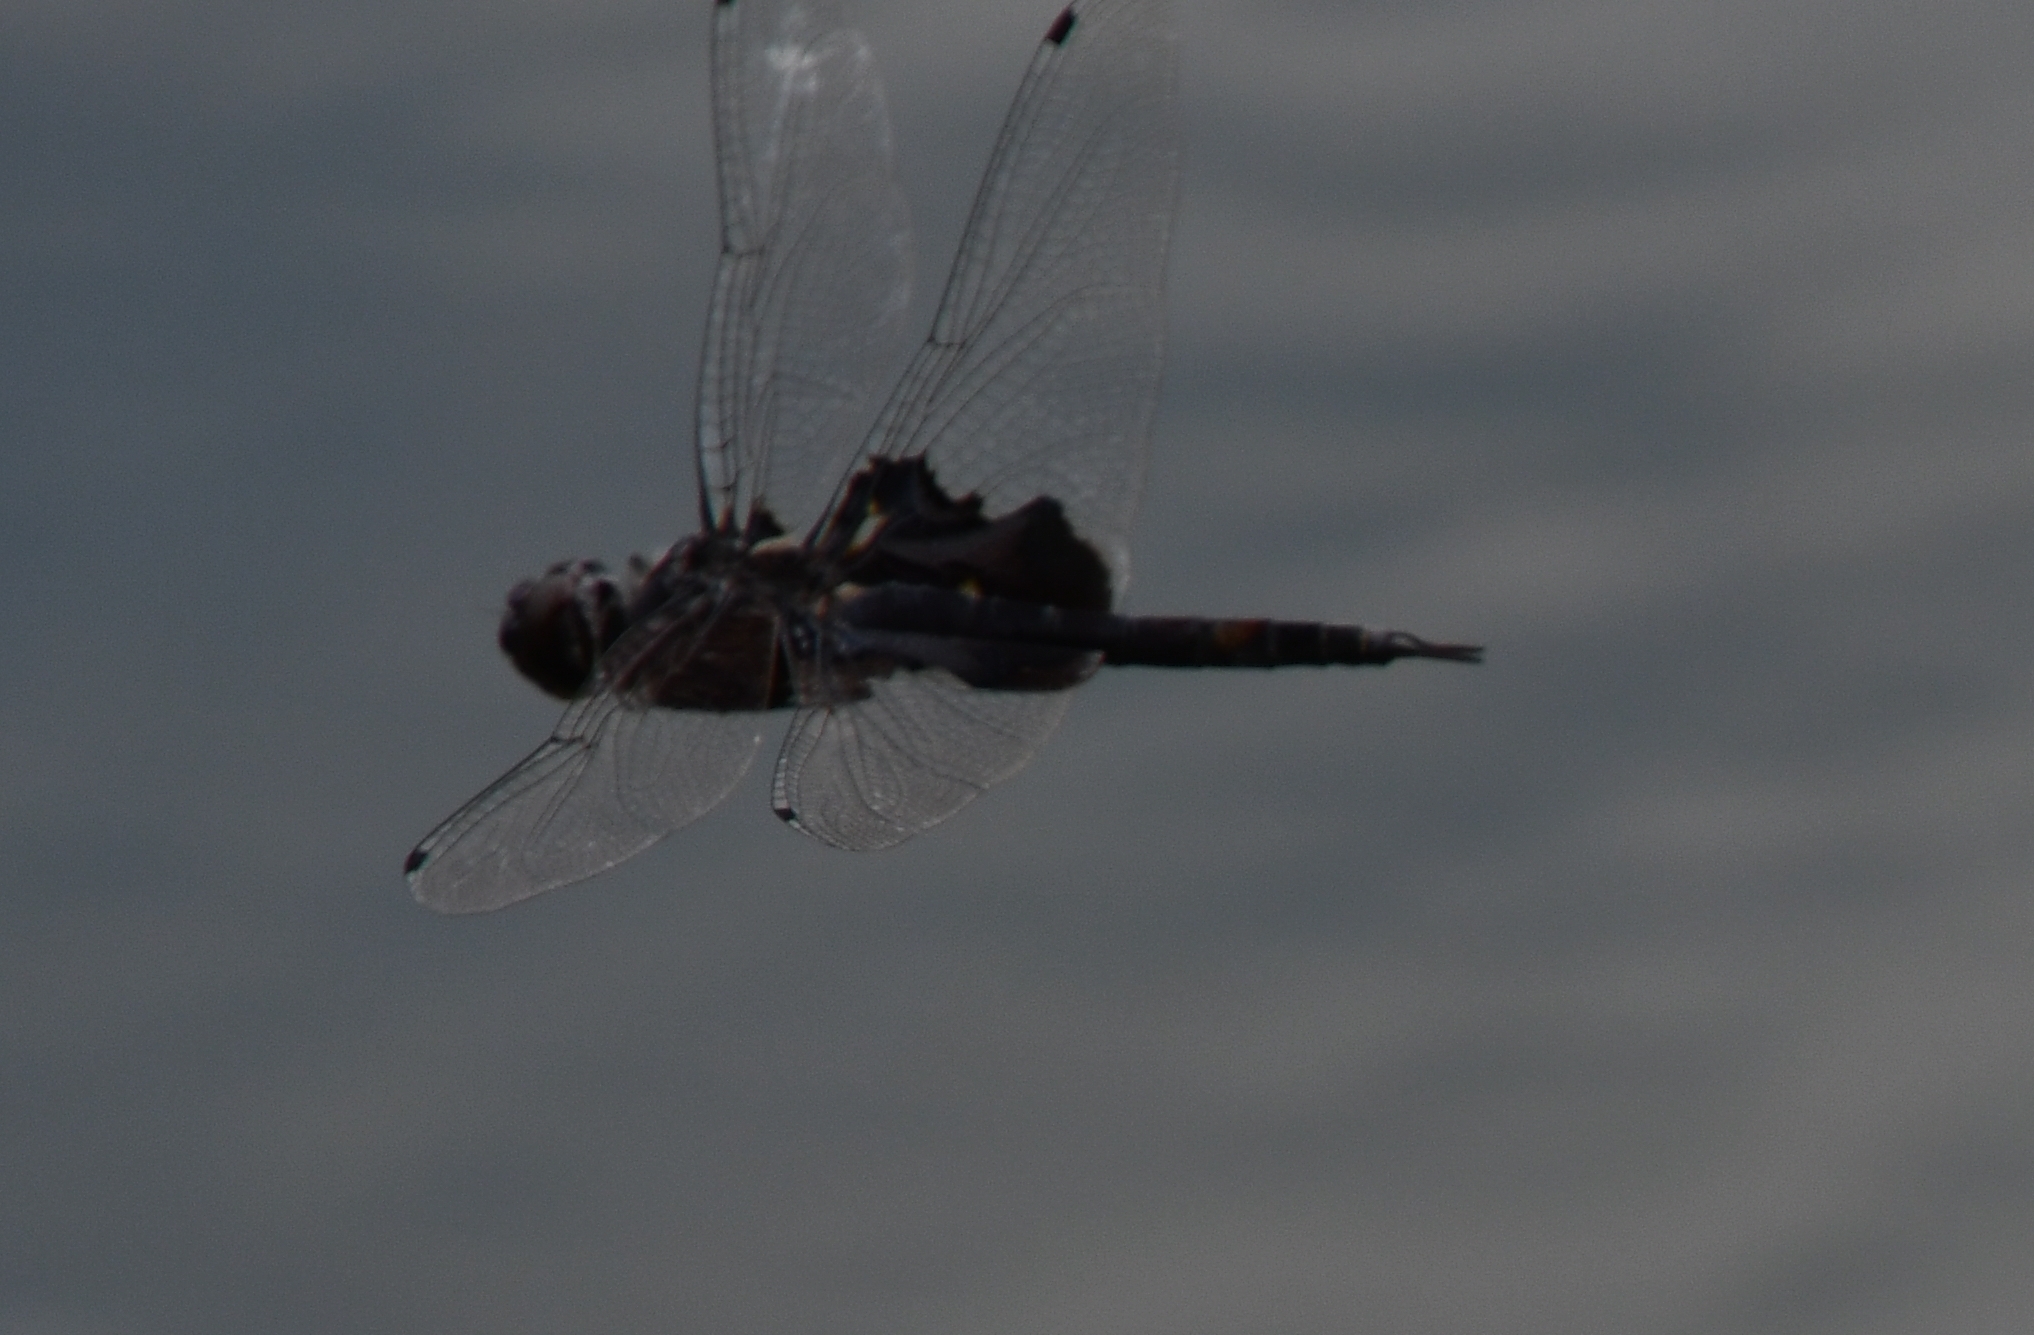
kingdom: Animalia
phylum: Arthropoda
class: Insecta
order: Odonata
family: Libellulidae
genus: Tramea
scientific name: Tramea lacerata
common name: Black saddlebags
